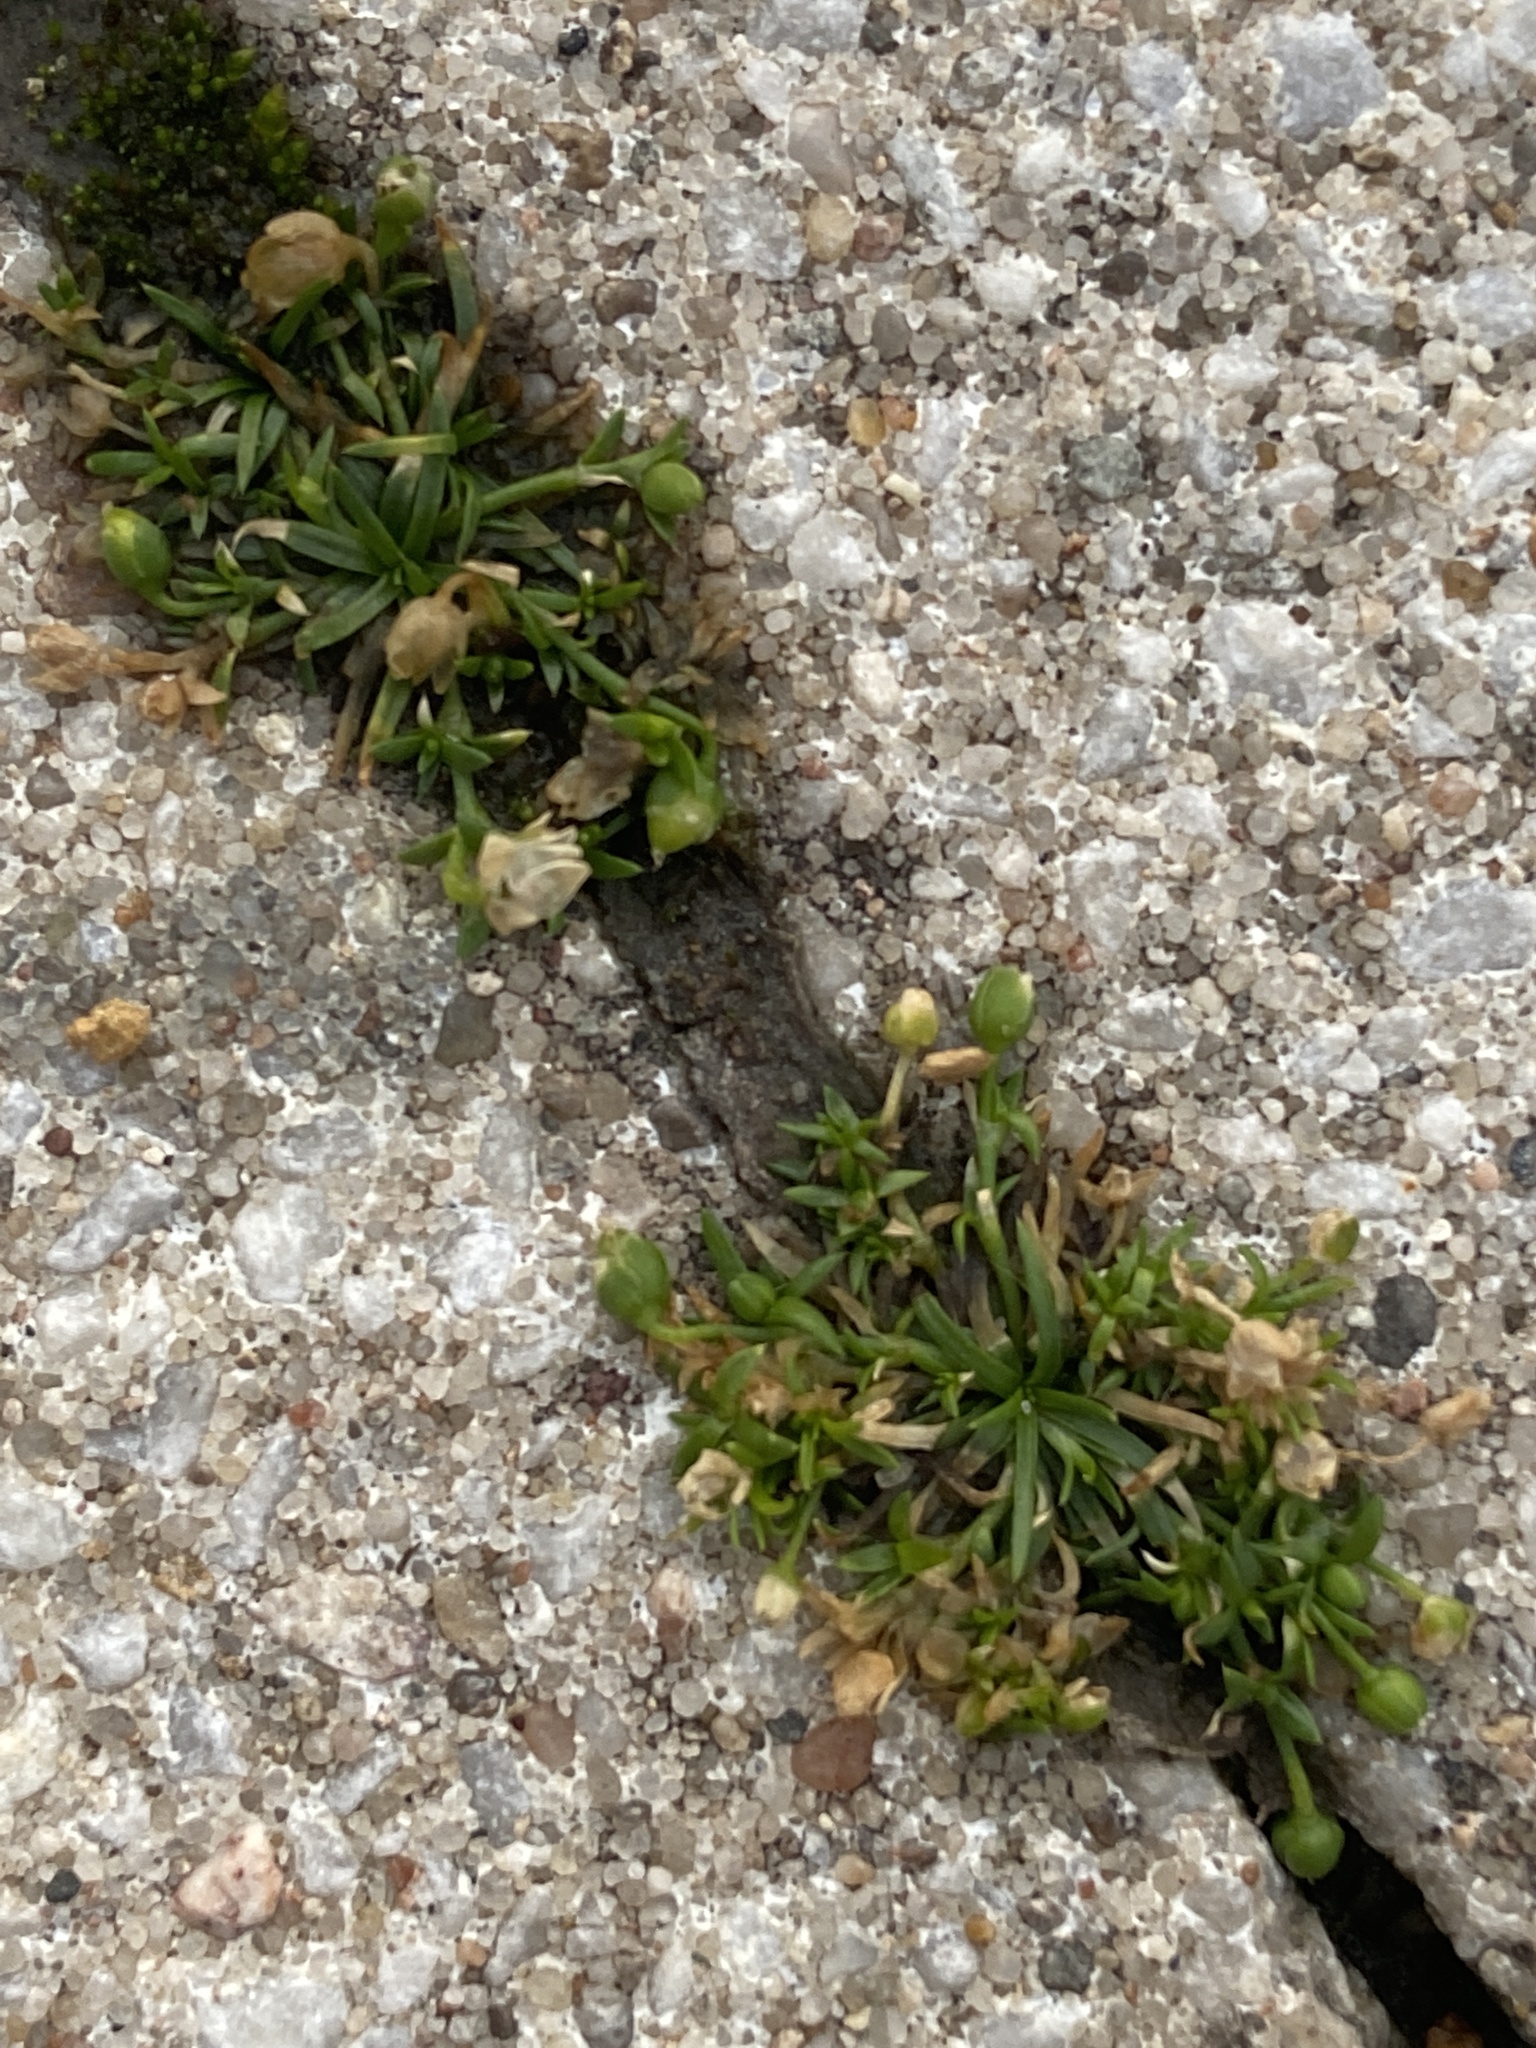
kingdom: Plantae
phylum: Tracheophyta
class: Magnoliopsida
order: Caryophyllales
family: Caryophyllaceae
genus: Sagina
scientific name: Sagina procumbens
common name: Procumbent pearlwort
